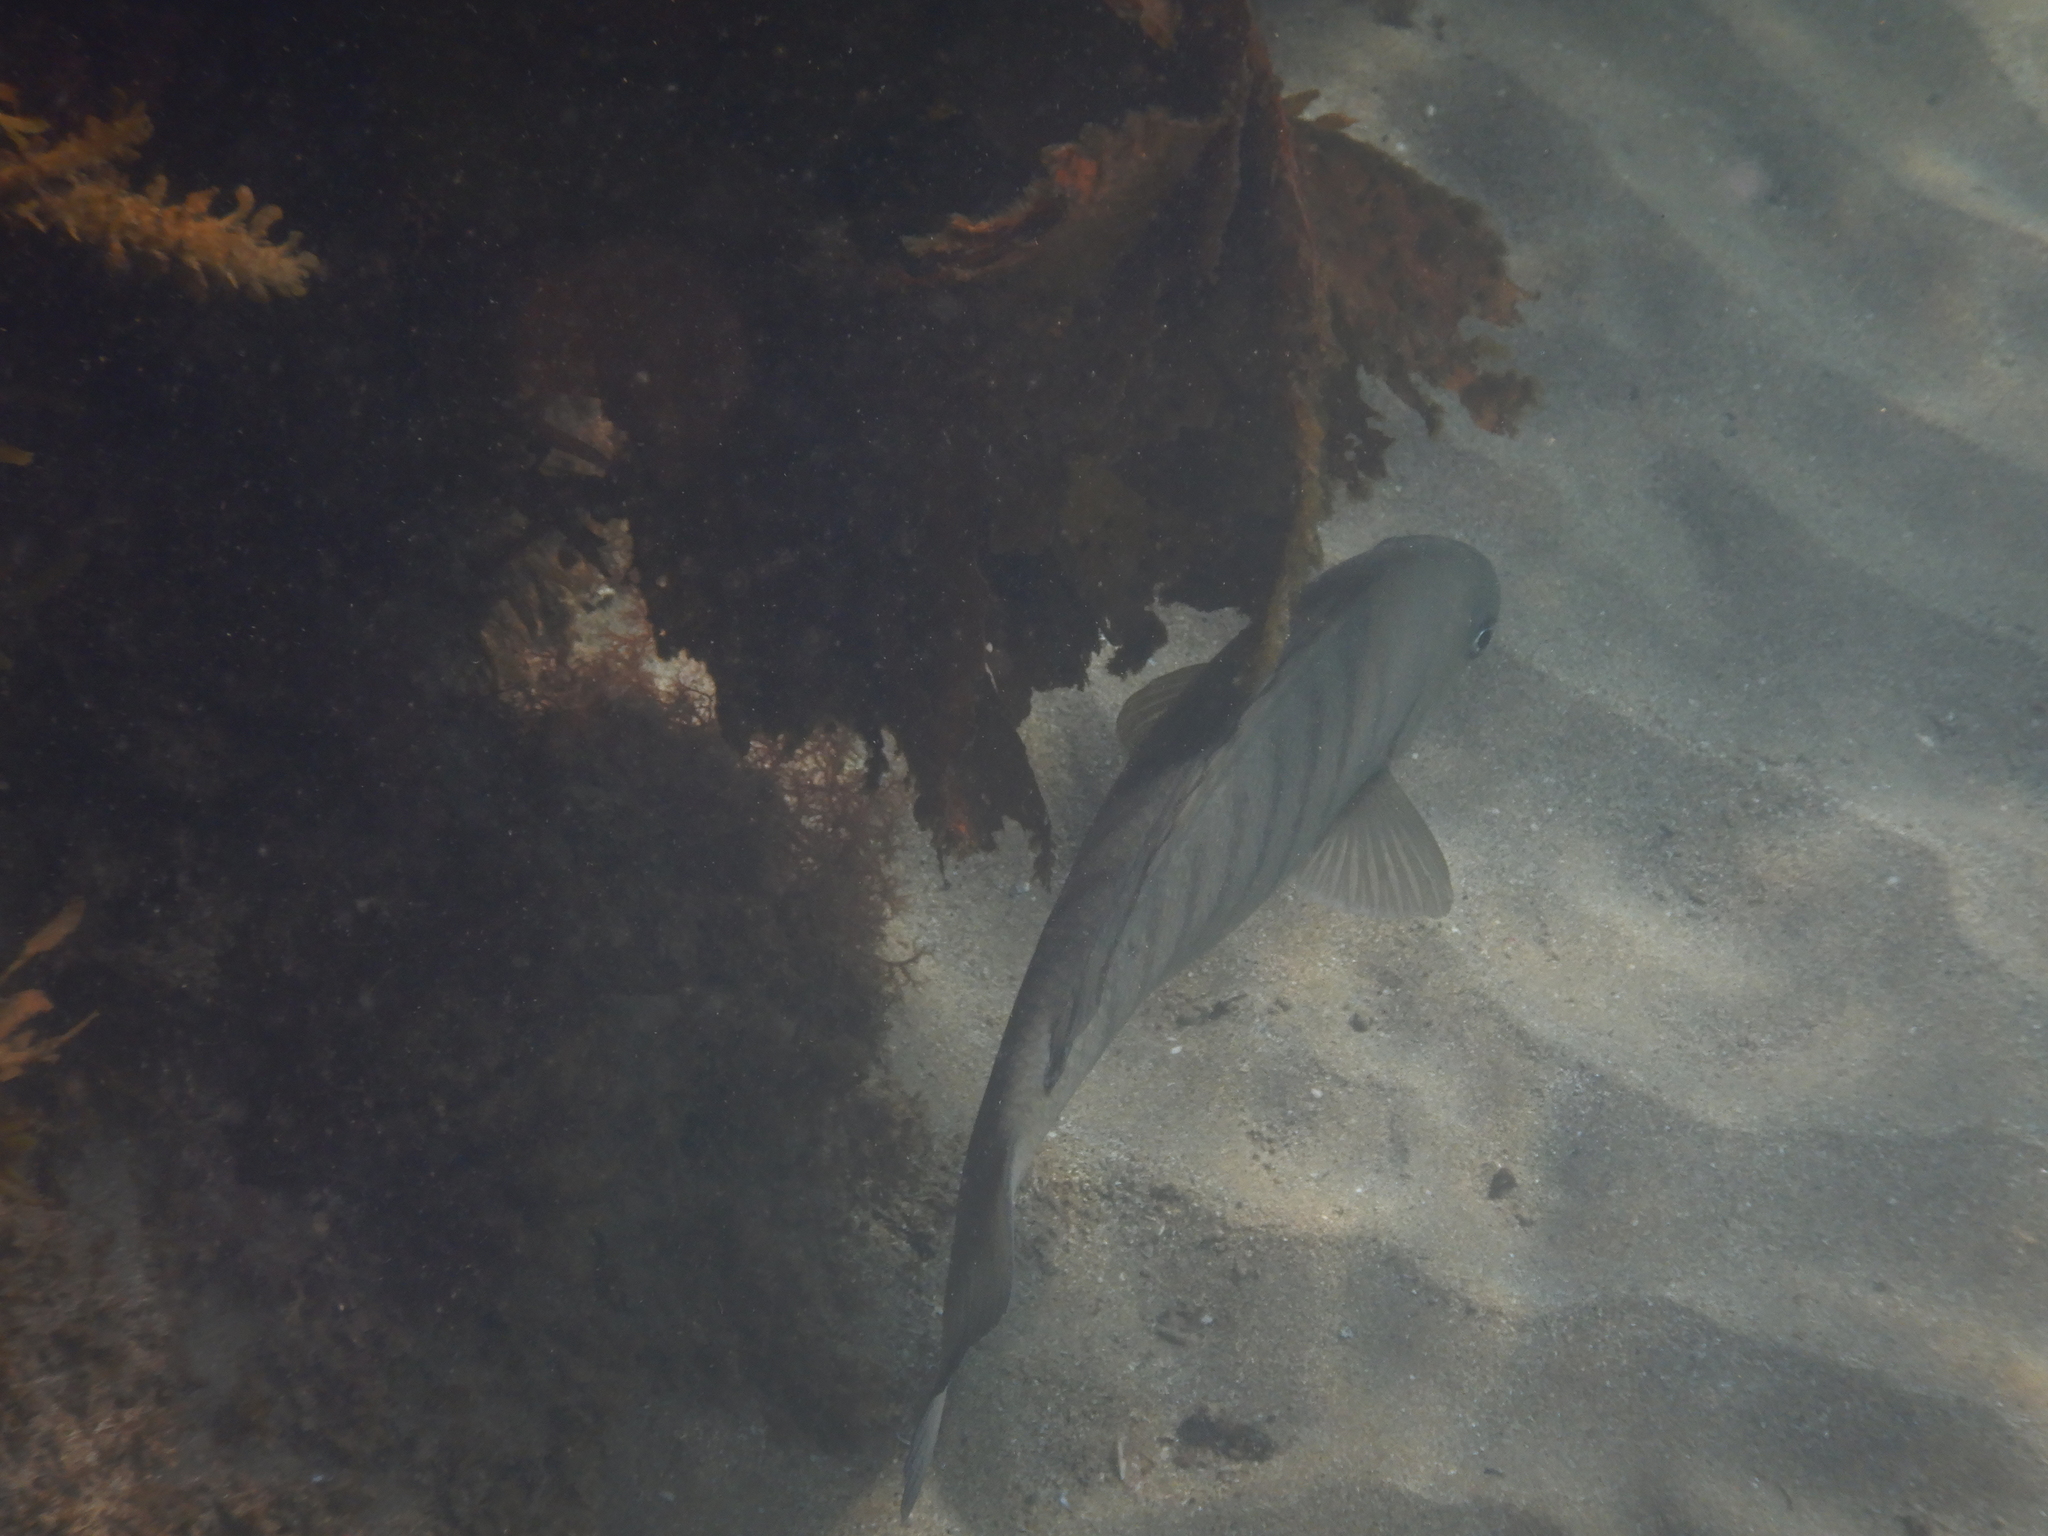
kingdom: Animalia
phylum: Chordata
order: Perciformes
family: Kyphosidae
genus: Girella
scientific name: Girella tricuspidata
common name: Parore
